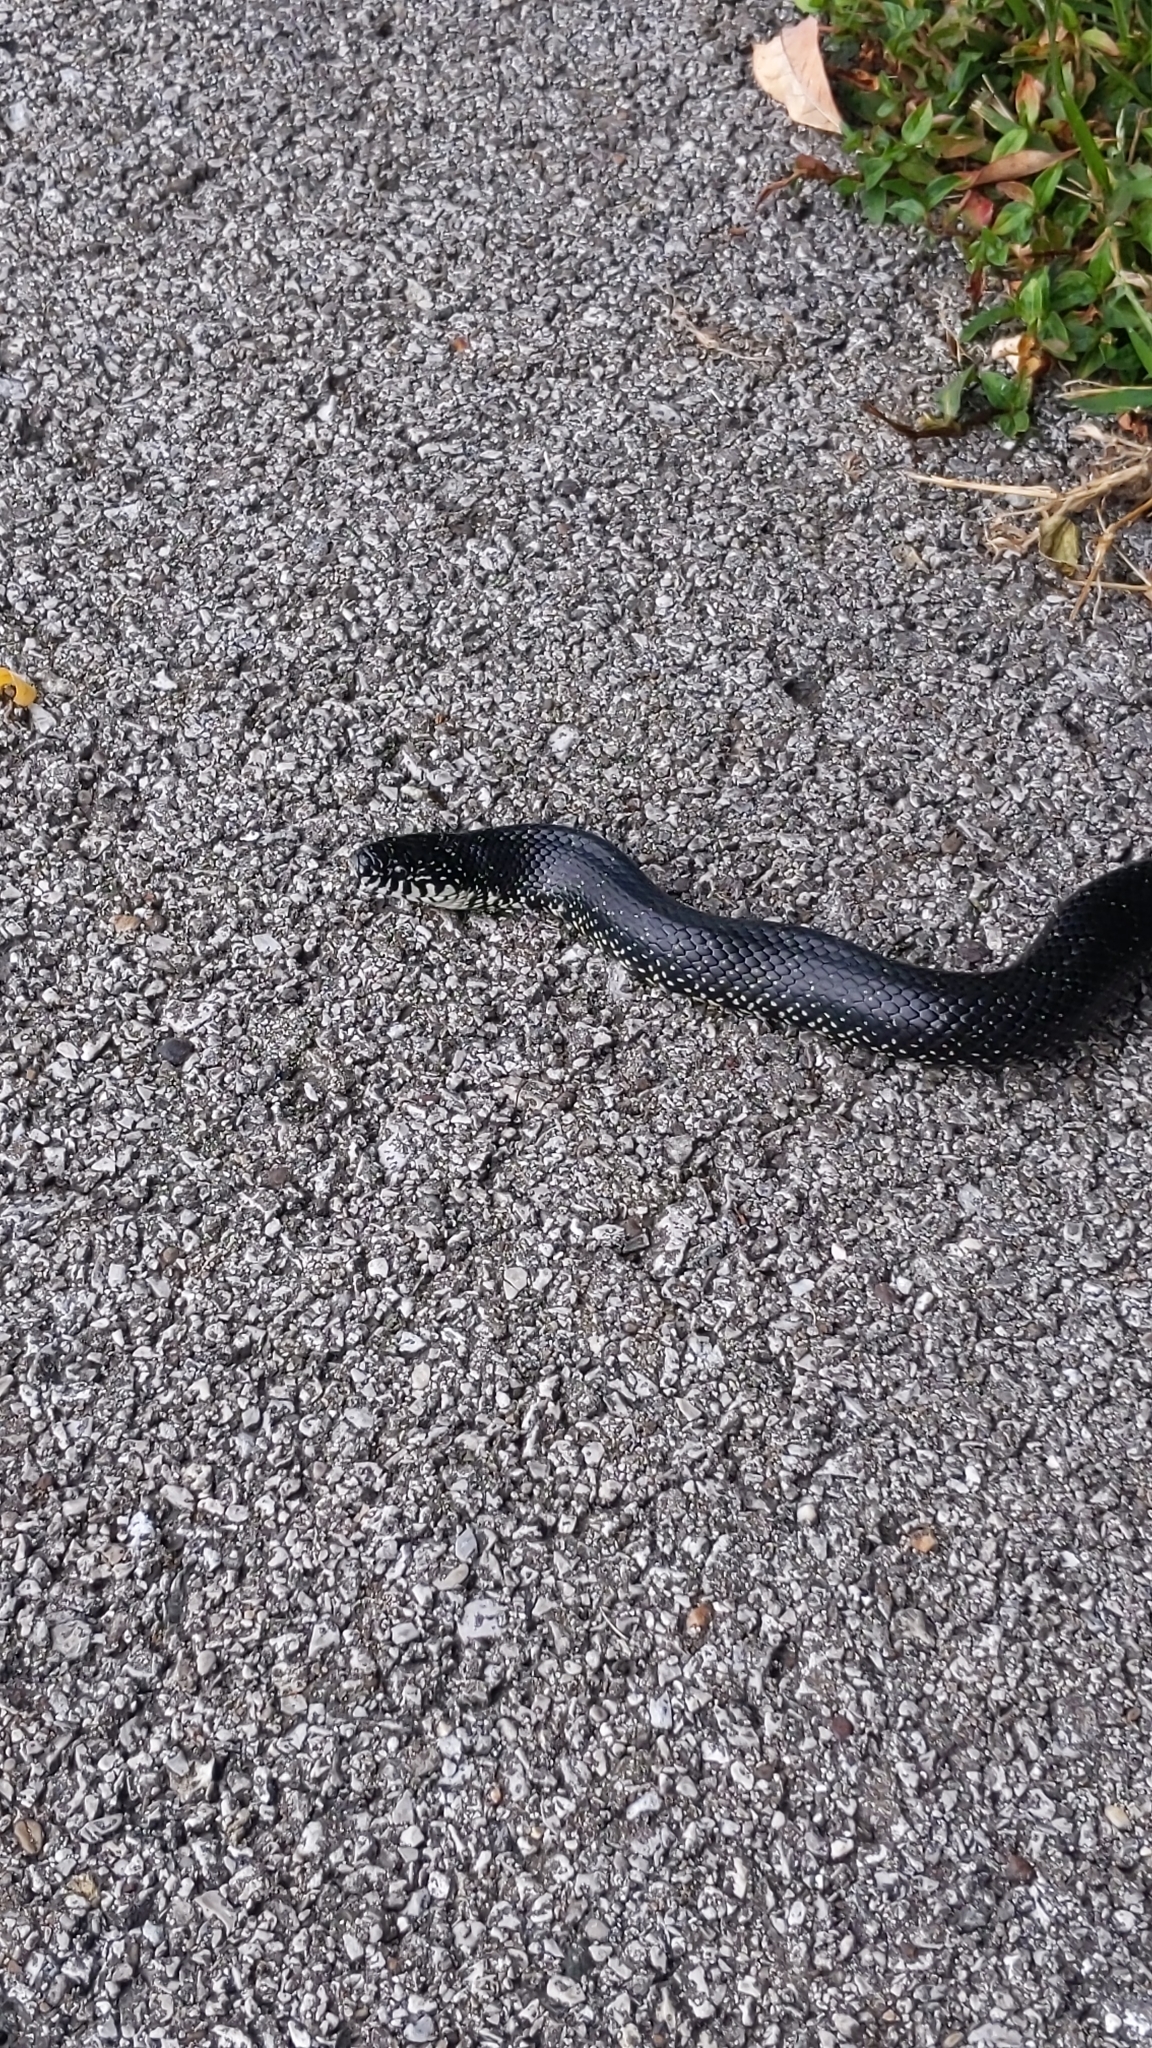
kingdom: Animalia
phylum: Chordata
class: Squamata
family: Colubridae
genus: Lampropeltis
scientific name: Lampropeltis nigra
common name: Black kingsnake
